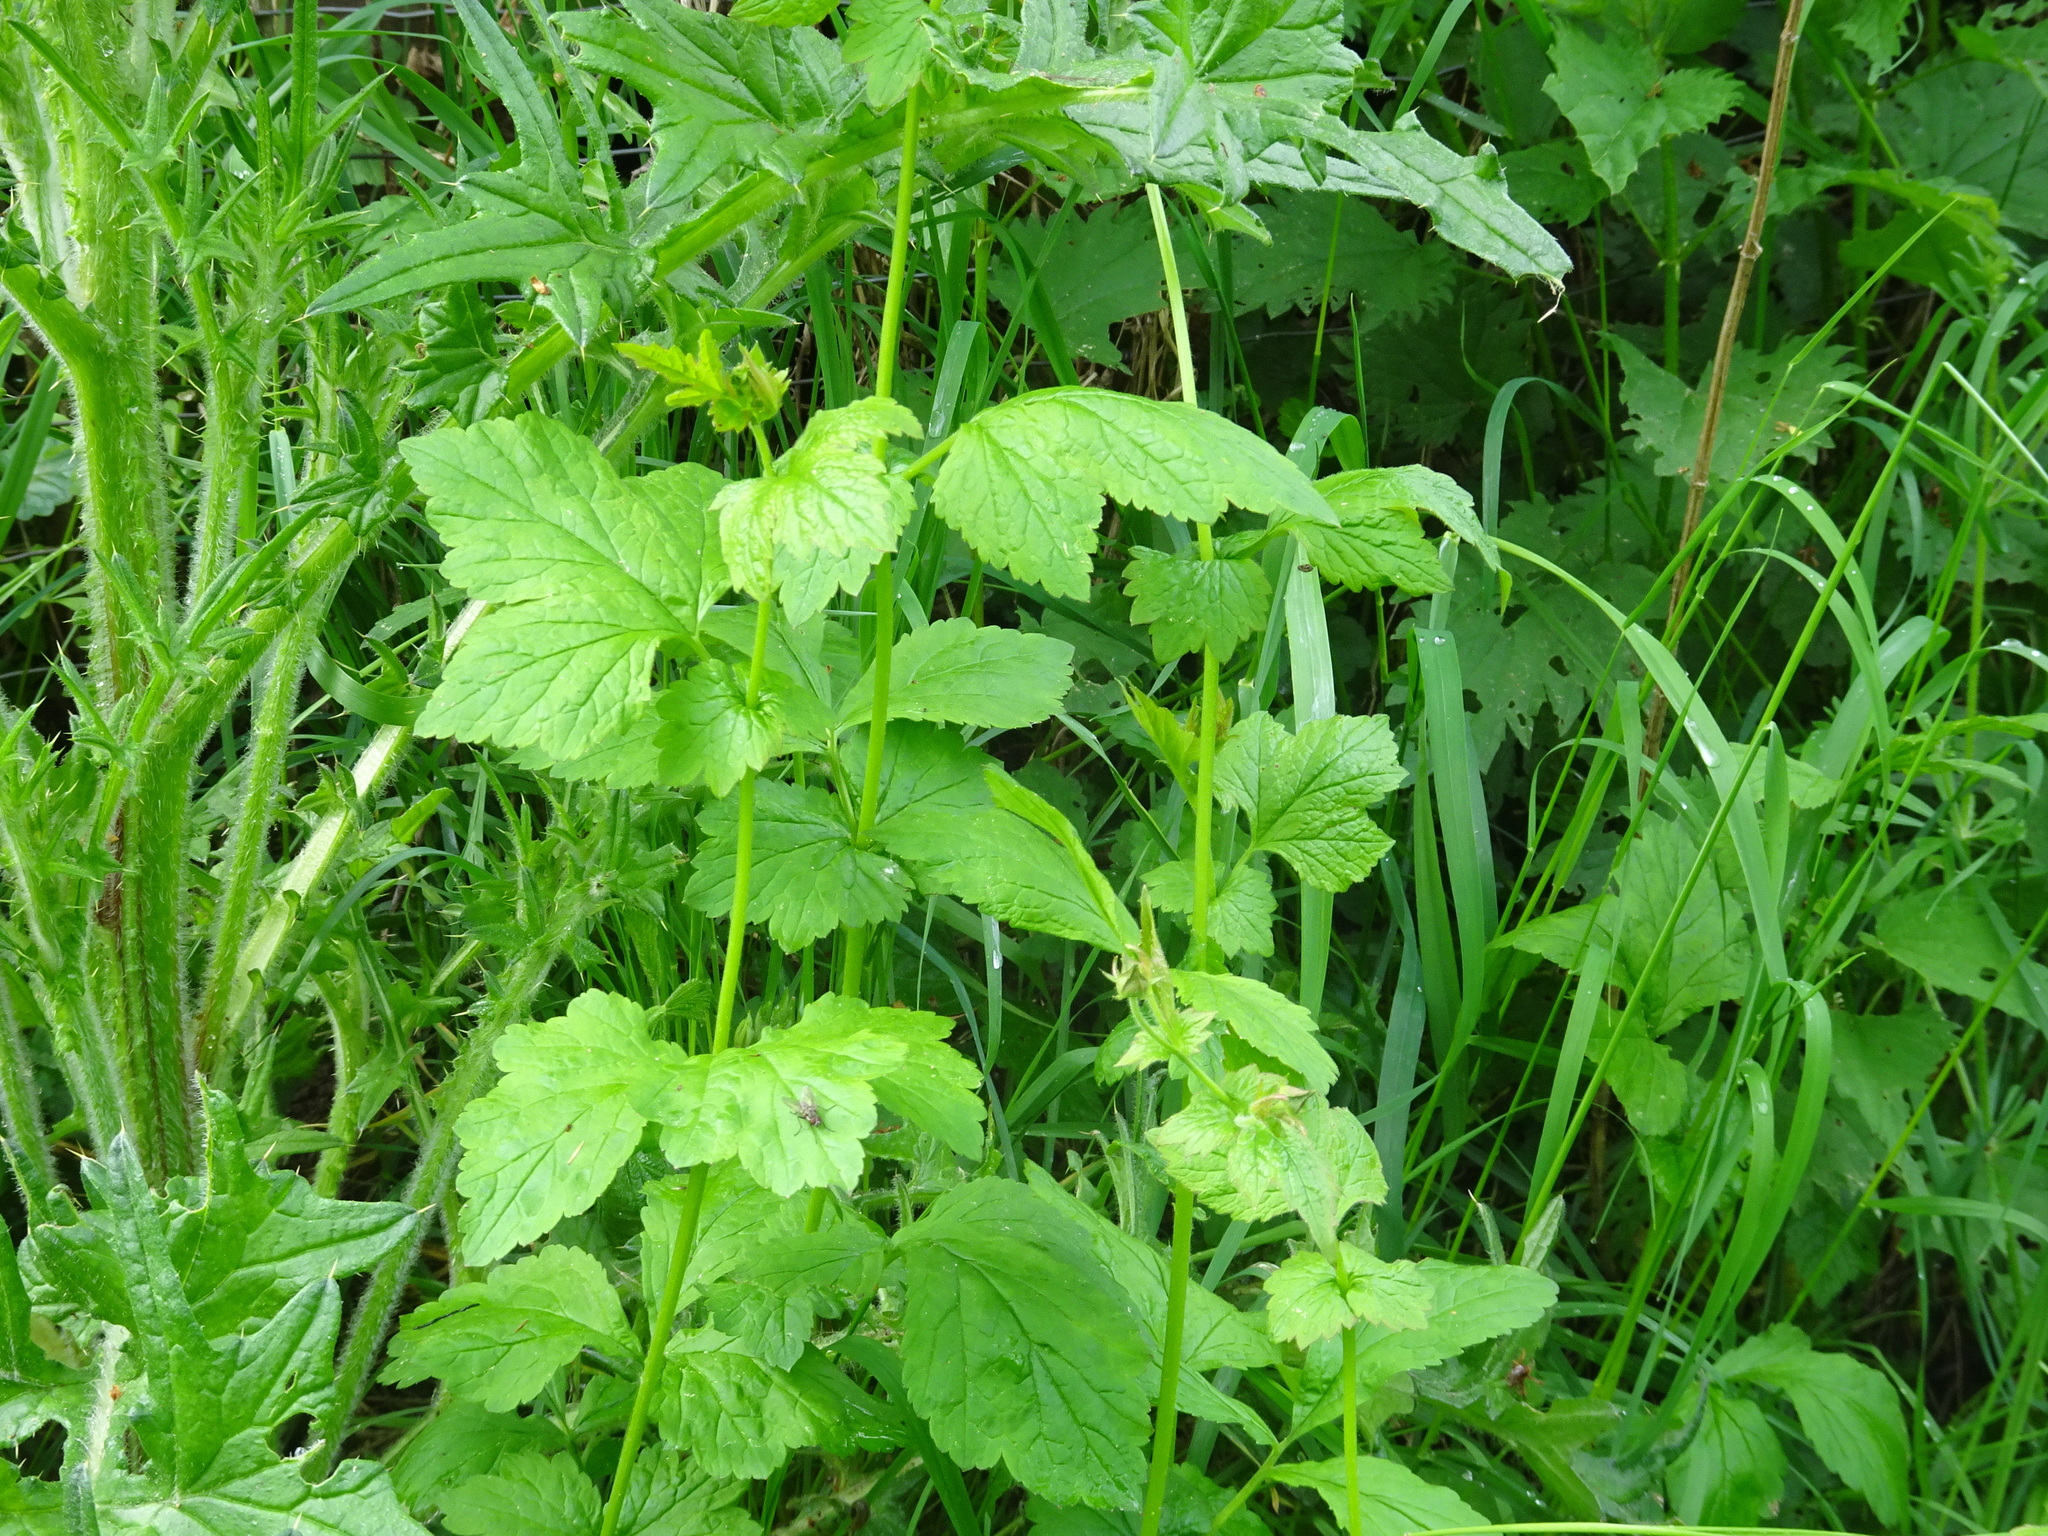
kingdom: Plantae
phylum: Tracheophyta
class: Magnoliopsida
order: Rosales
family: Rosaceae
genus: Geum
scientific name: Geum urbanum
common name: Wood avens
